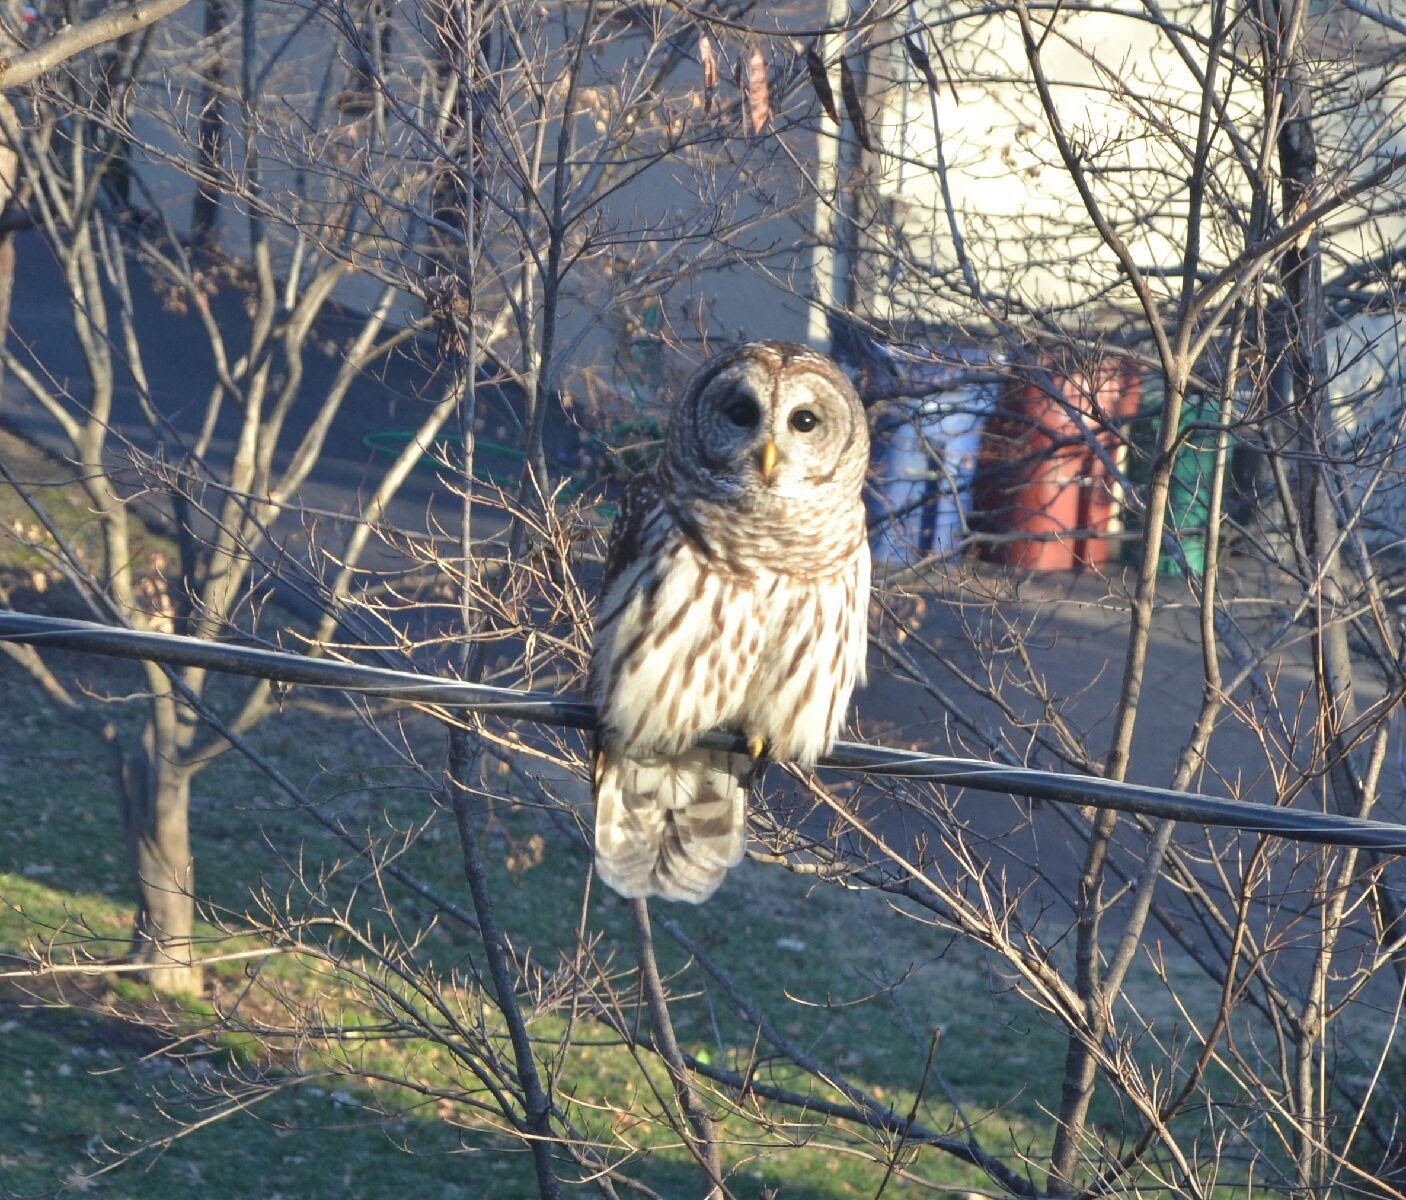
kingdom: Animalia
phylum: Chordata
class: Aves
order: Strigiformes
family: Strigidae
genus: Strix
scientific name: Strix varia
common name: Barred owl
